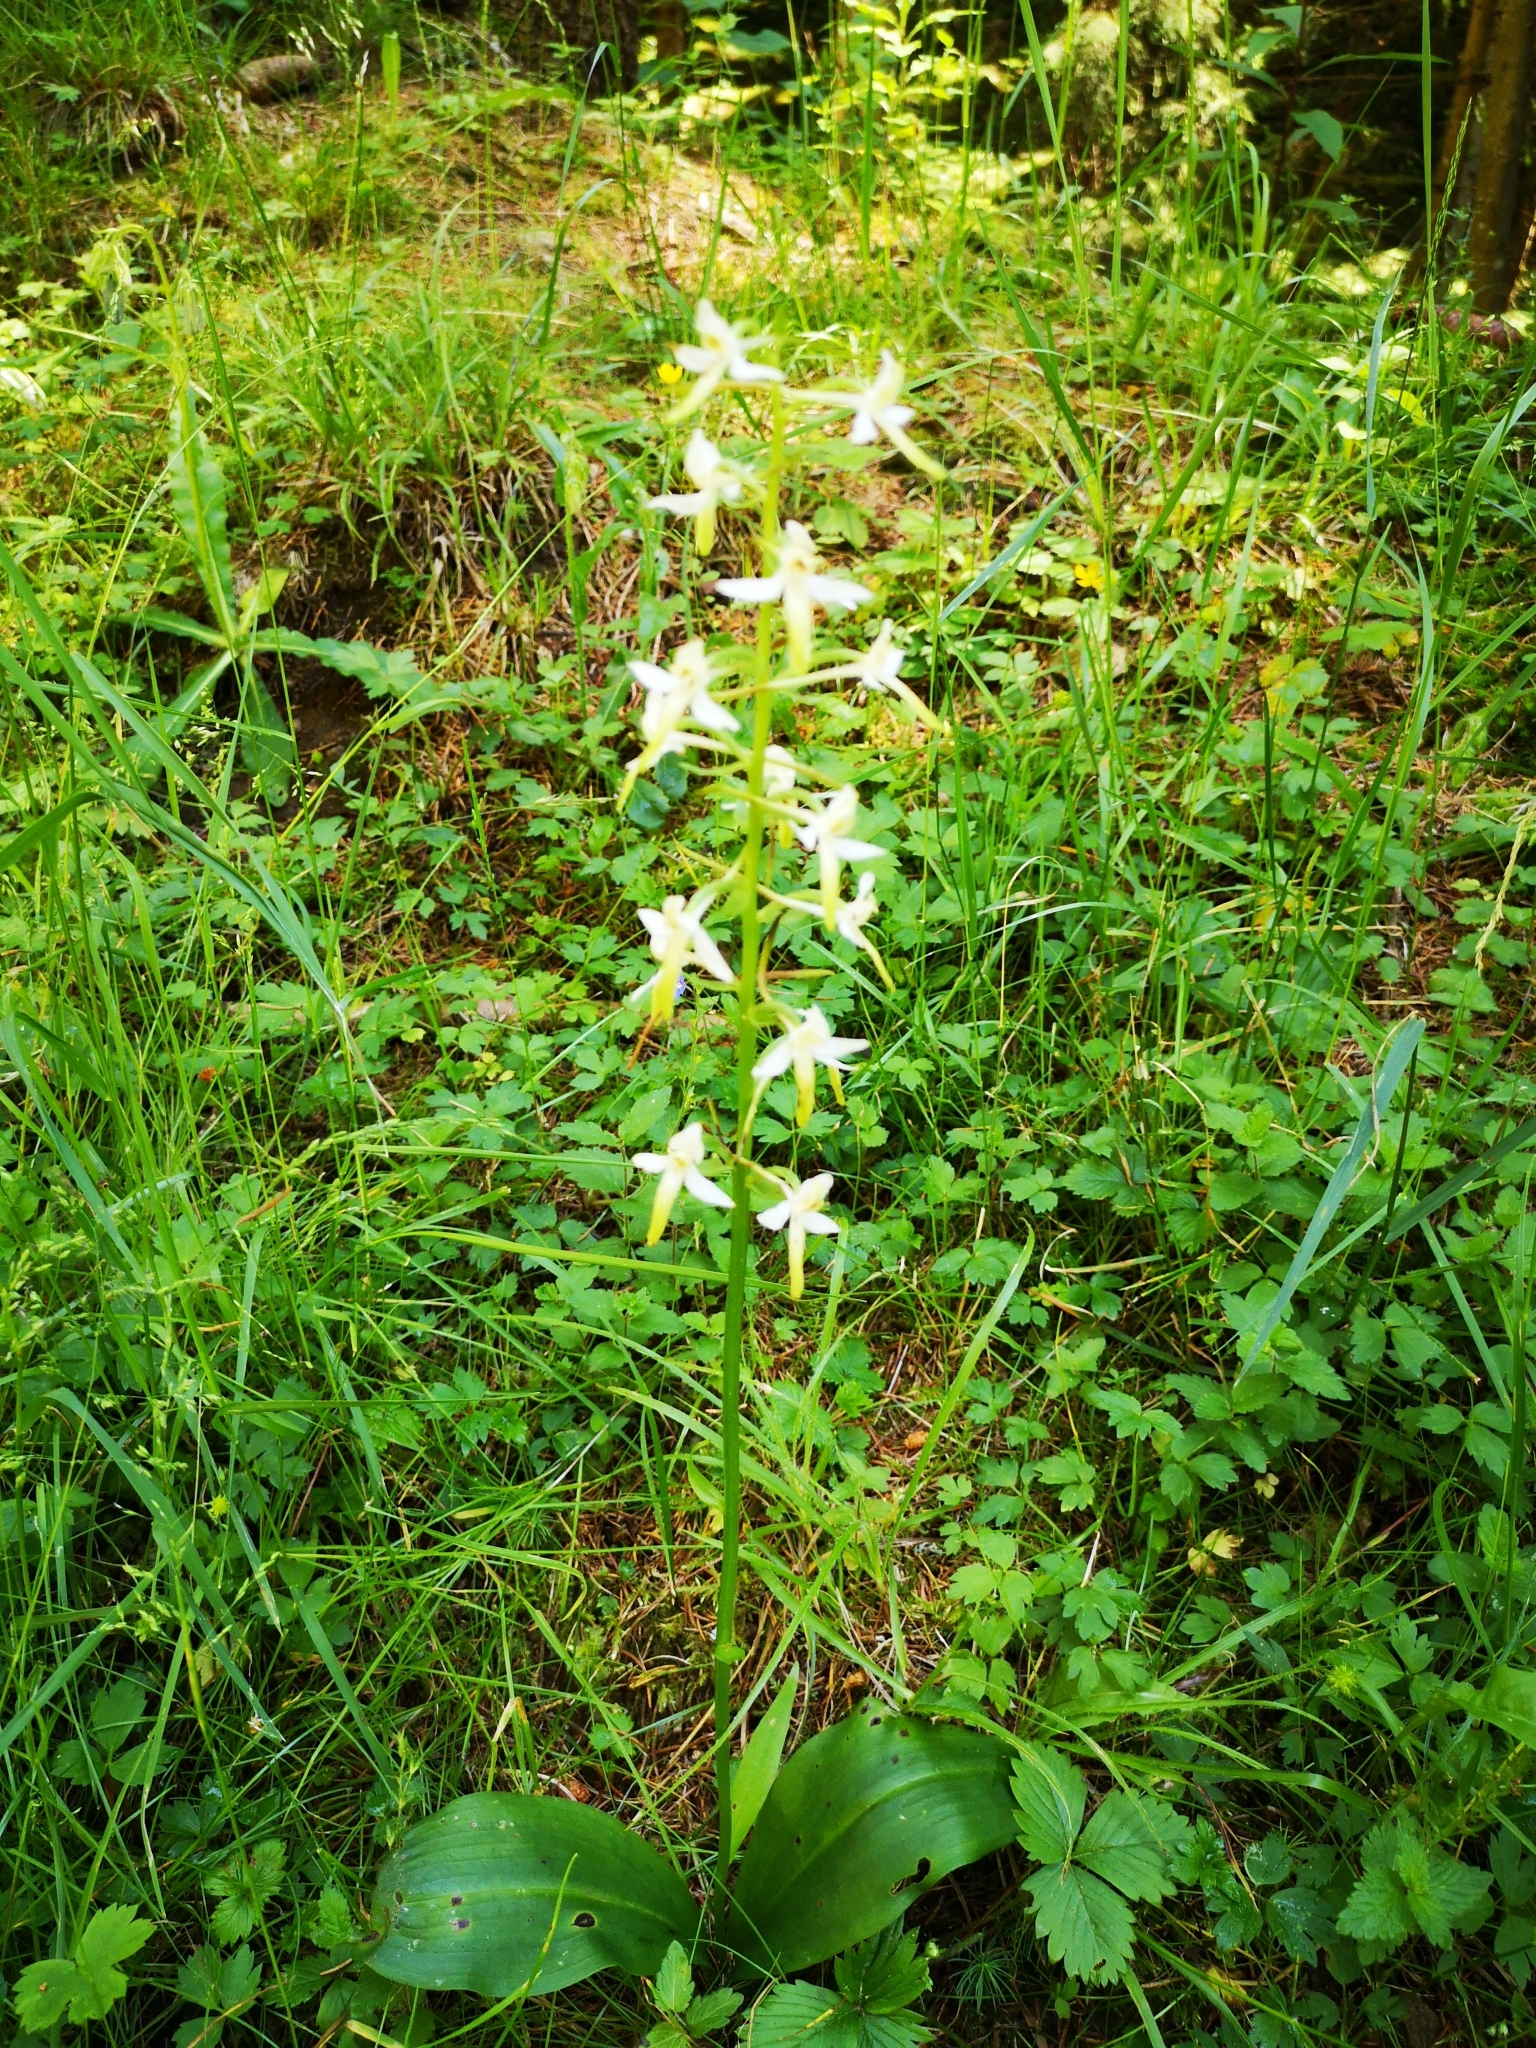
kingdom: Plantae
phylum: Tracheophyta
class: Liliopsida
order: Asparagales
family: Orchidaceae
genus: Platanthera
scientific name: Platanthera bifolia
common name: Lesser butterfly-orchid
